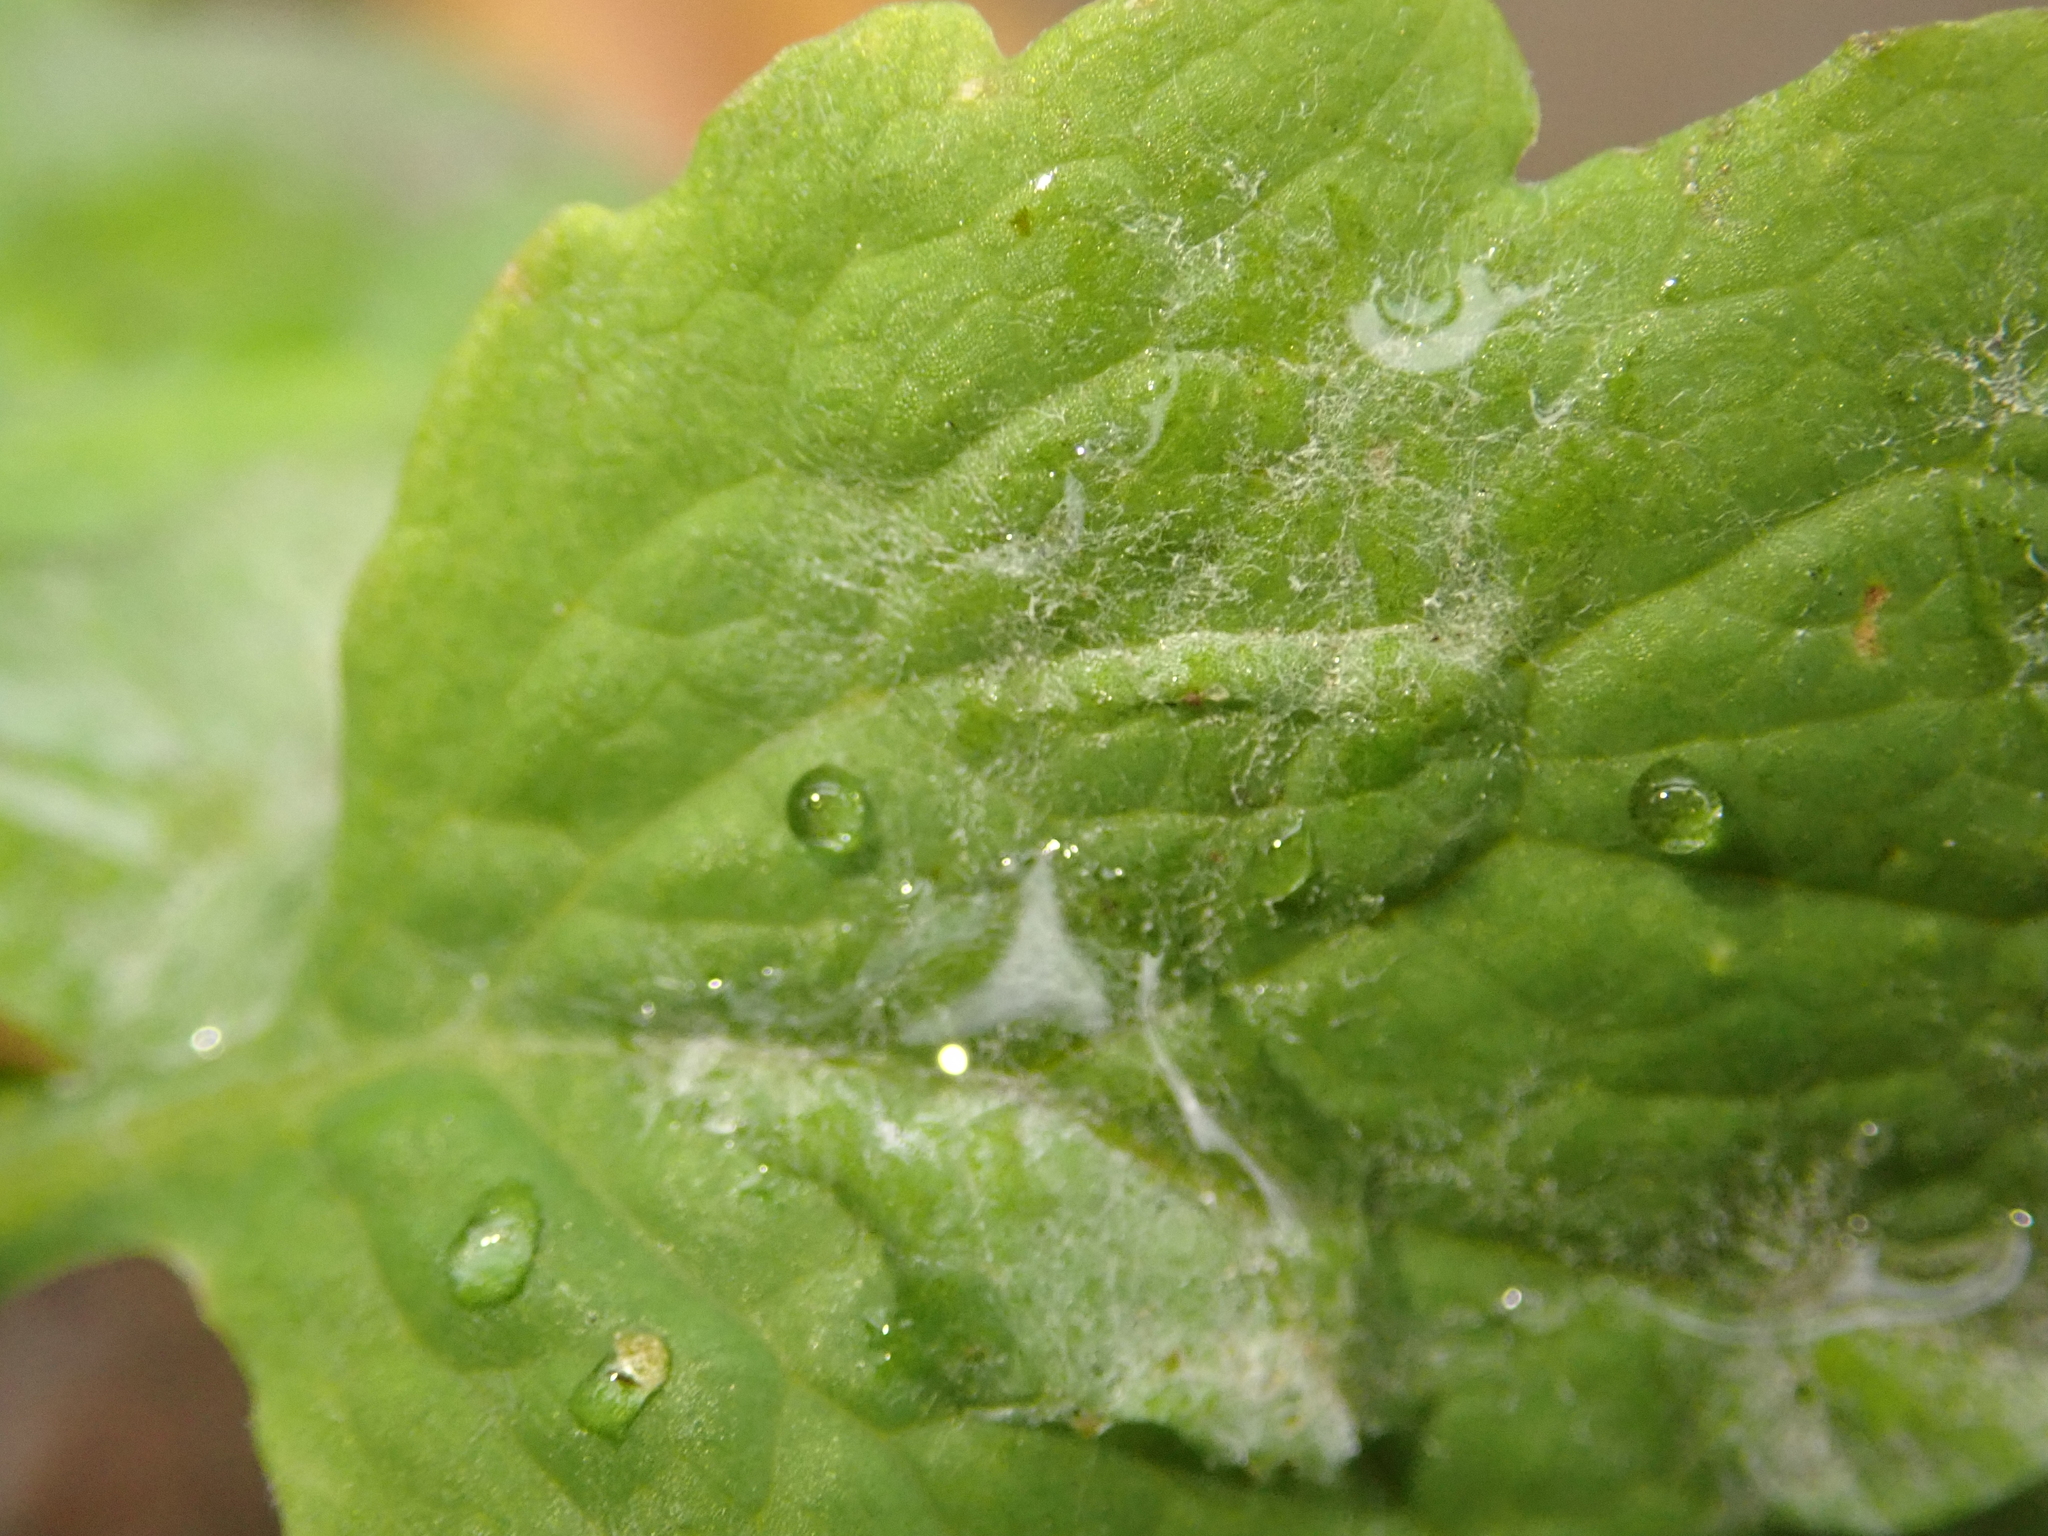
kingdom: Fungi
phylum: Ascomycota
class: Leotiomycetes
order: Helotiales
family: Erysiphaceae
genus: Erysiphe
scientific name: Erysiphe macleayae
